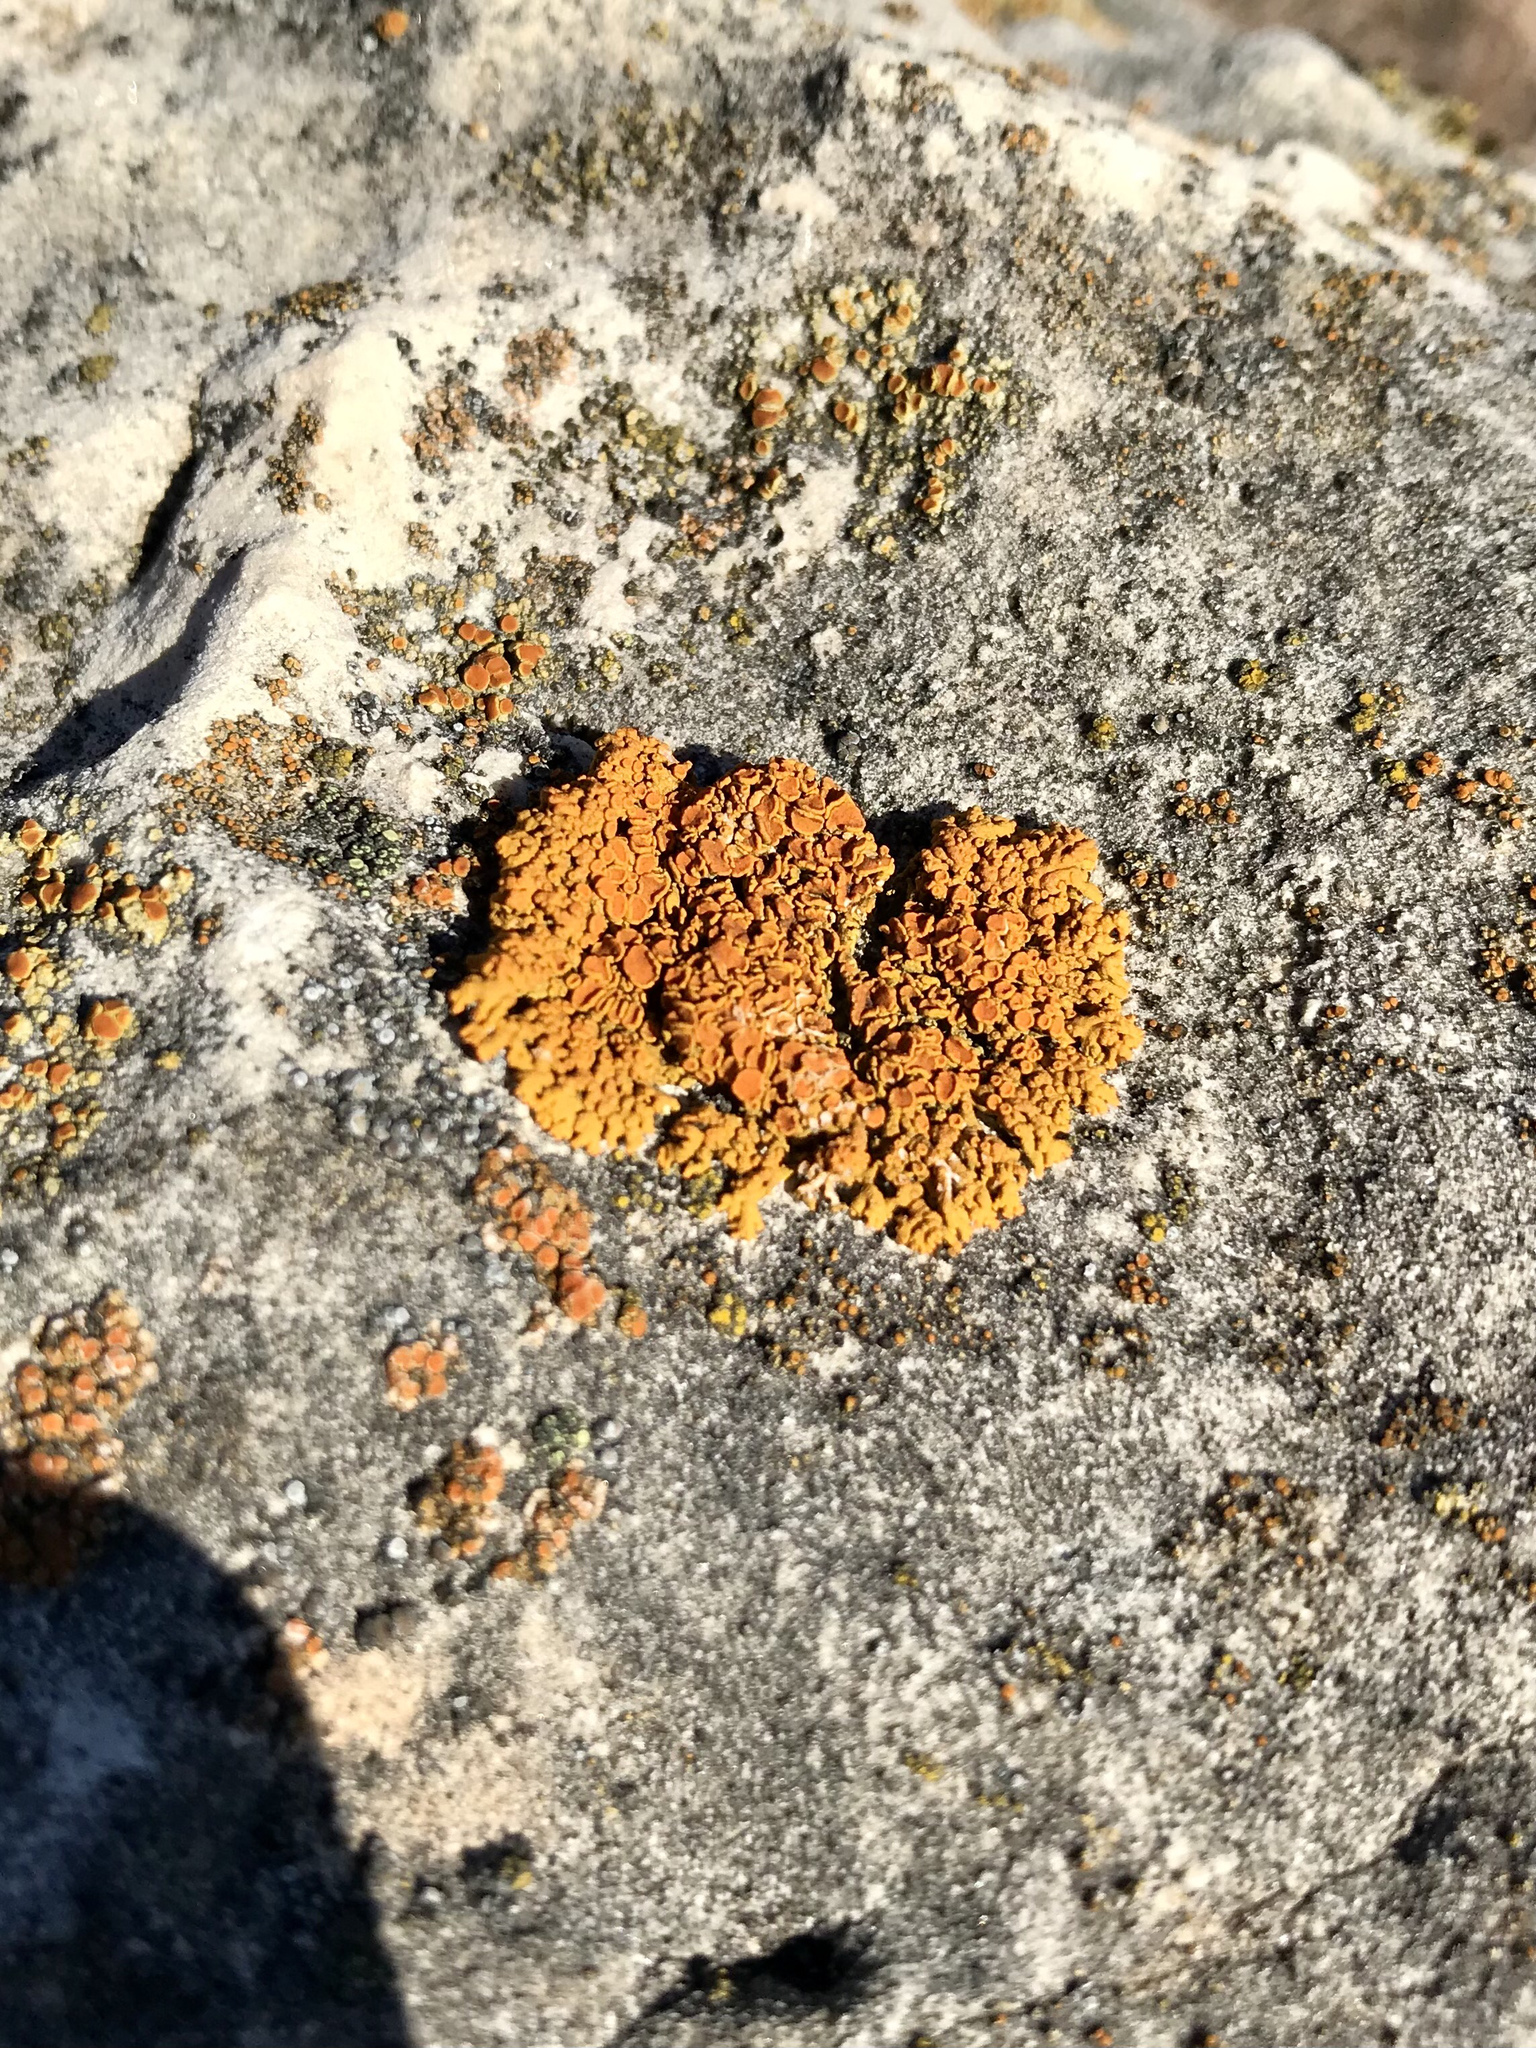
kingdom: Fungi
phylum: Ascomycota
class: Lecanoromycetes
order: Teloschistales
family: Teloschistaceae
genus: Xanthoria
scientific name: Xanthoria elegans
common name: Elegant sunburst lichen
